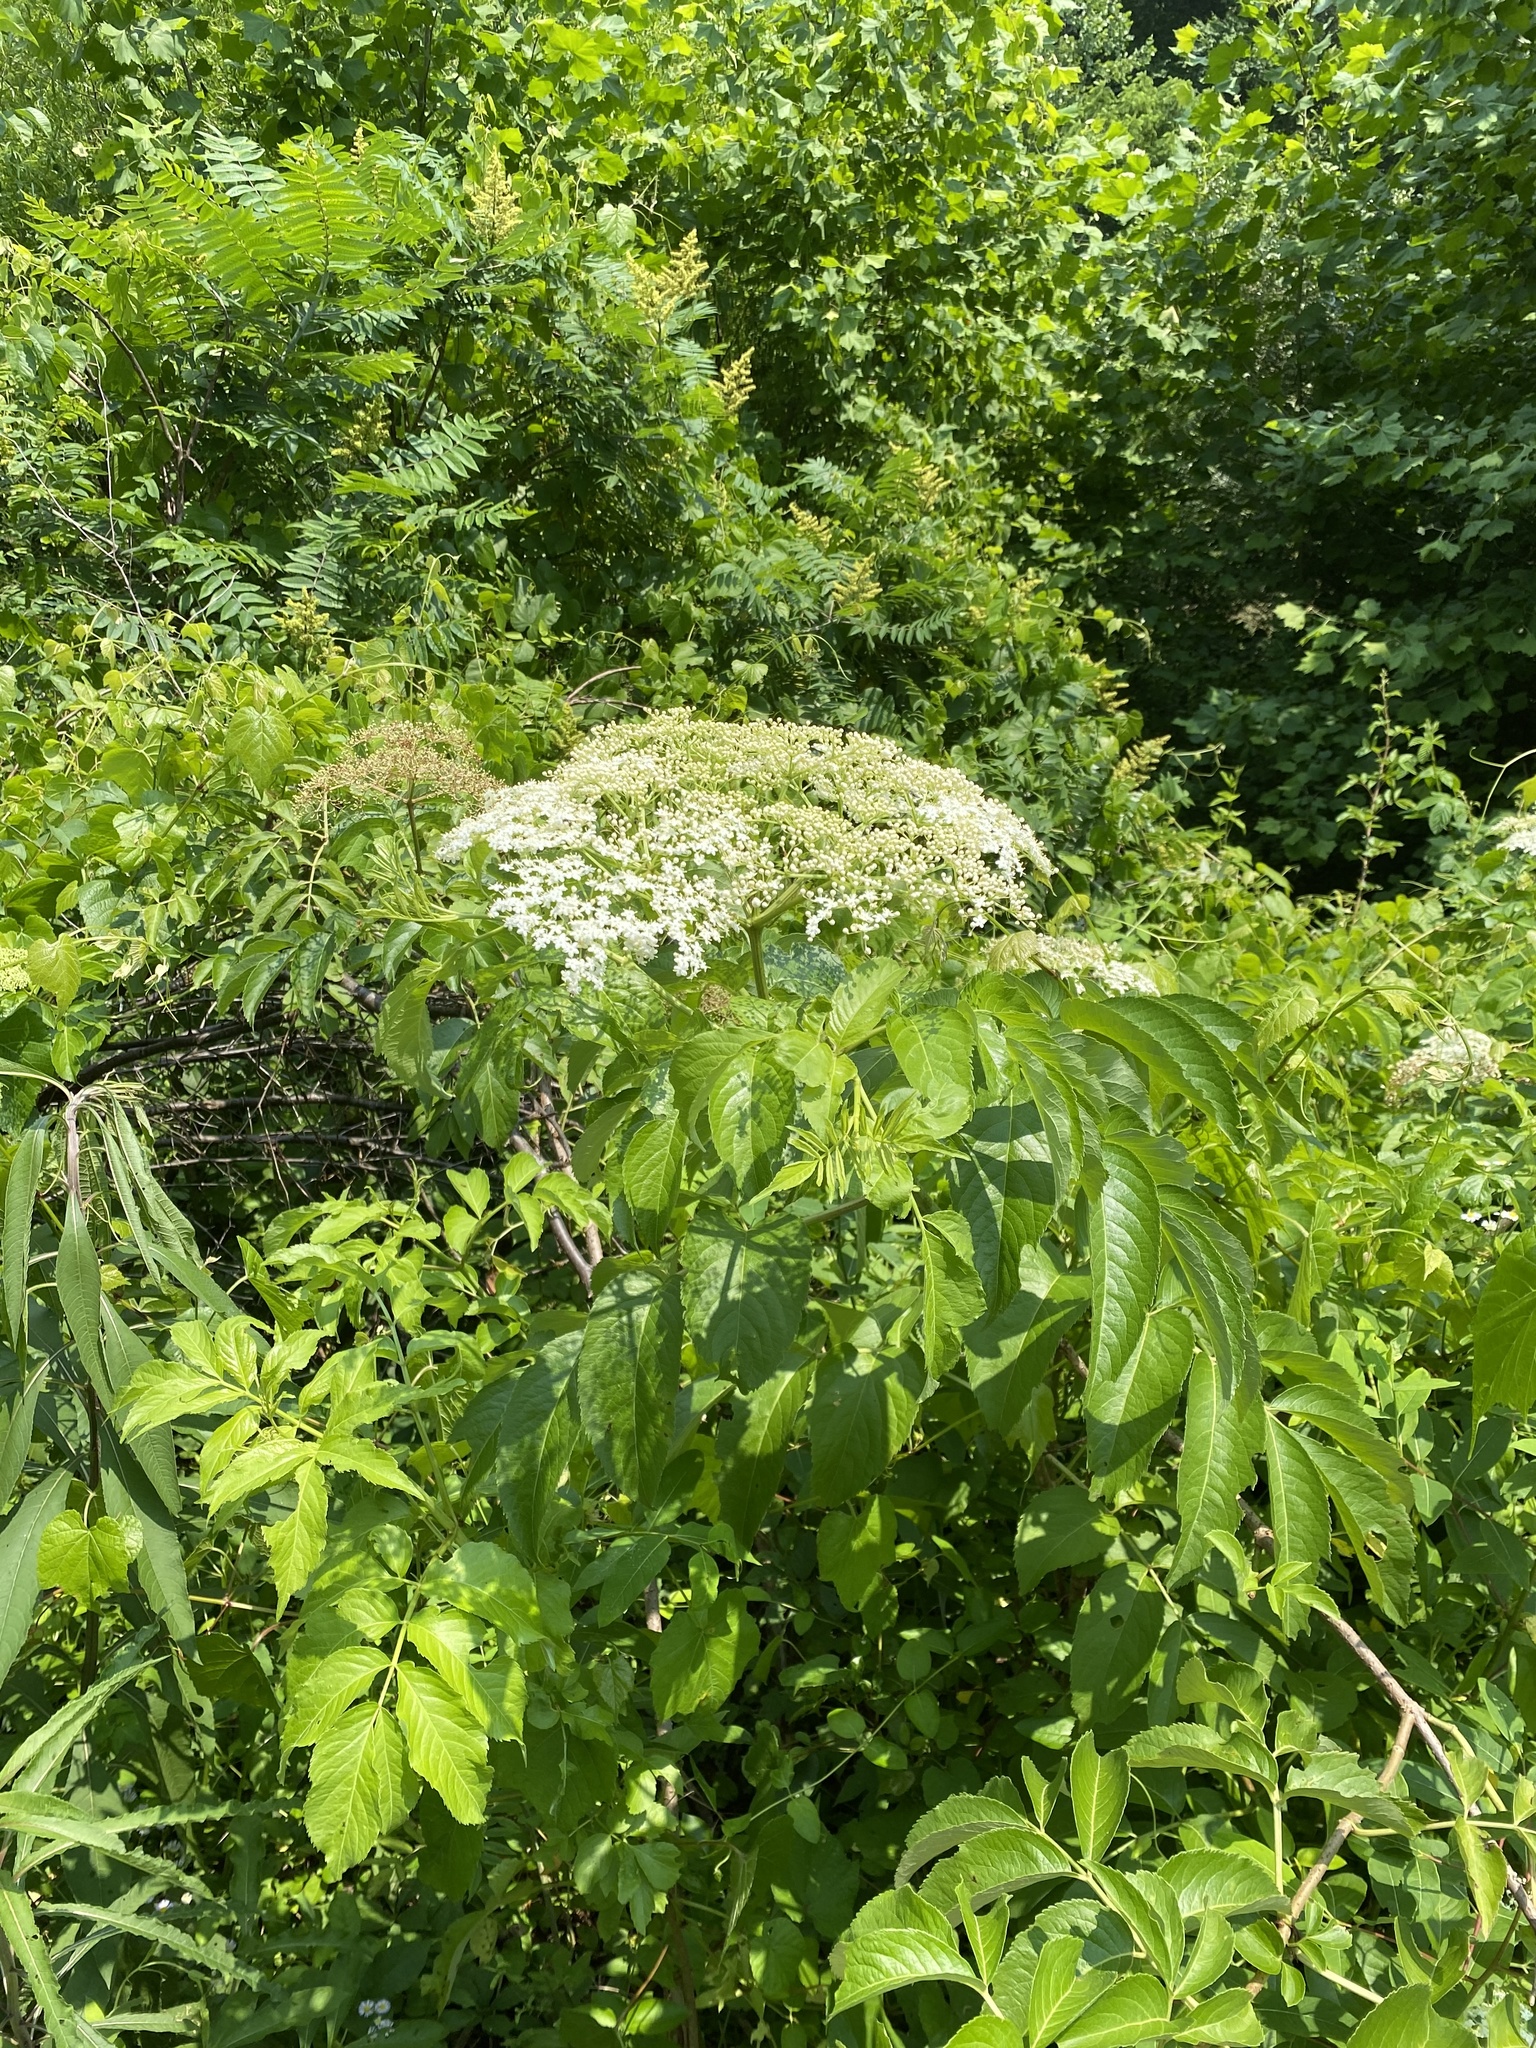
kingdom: Plantae
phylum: Tracheophyta
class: Magnoliopsida
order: Dipsacales
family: Viburnaceae
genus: Sambucus
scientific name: Sambucus canadensis
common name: American elder
